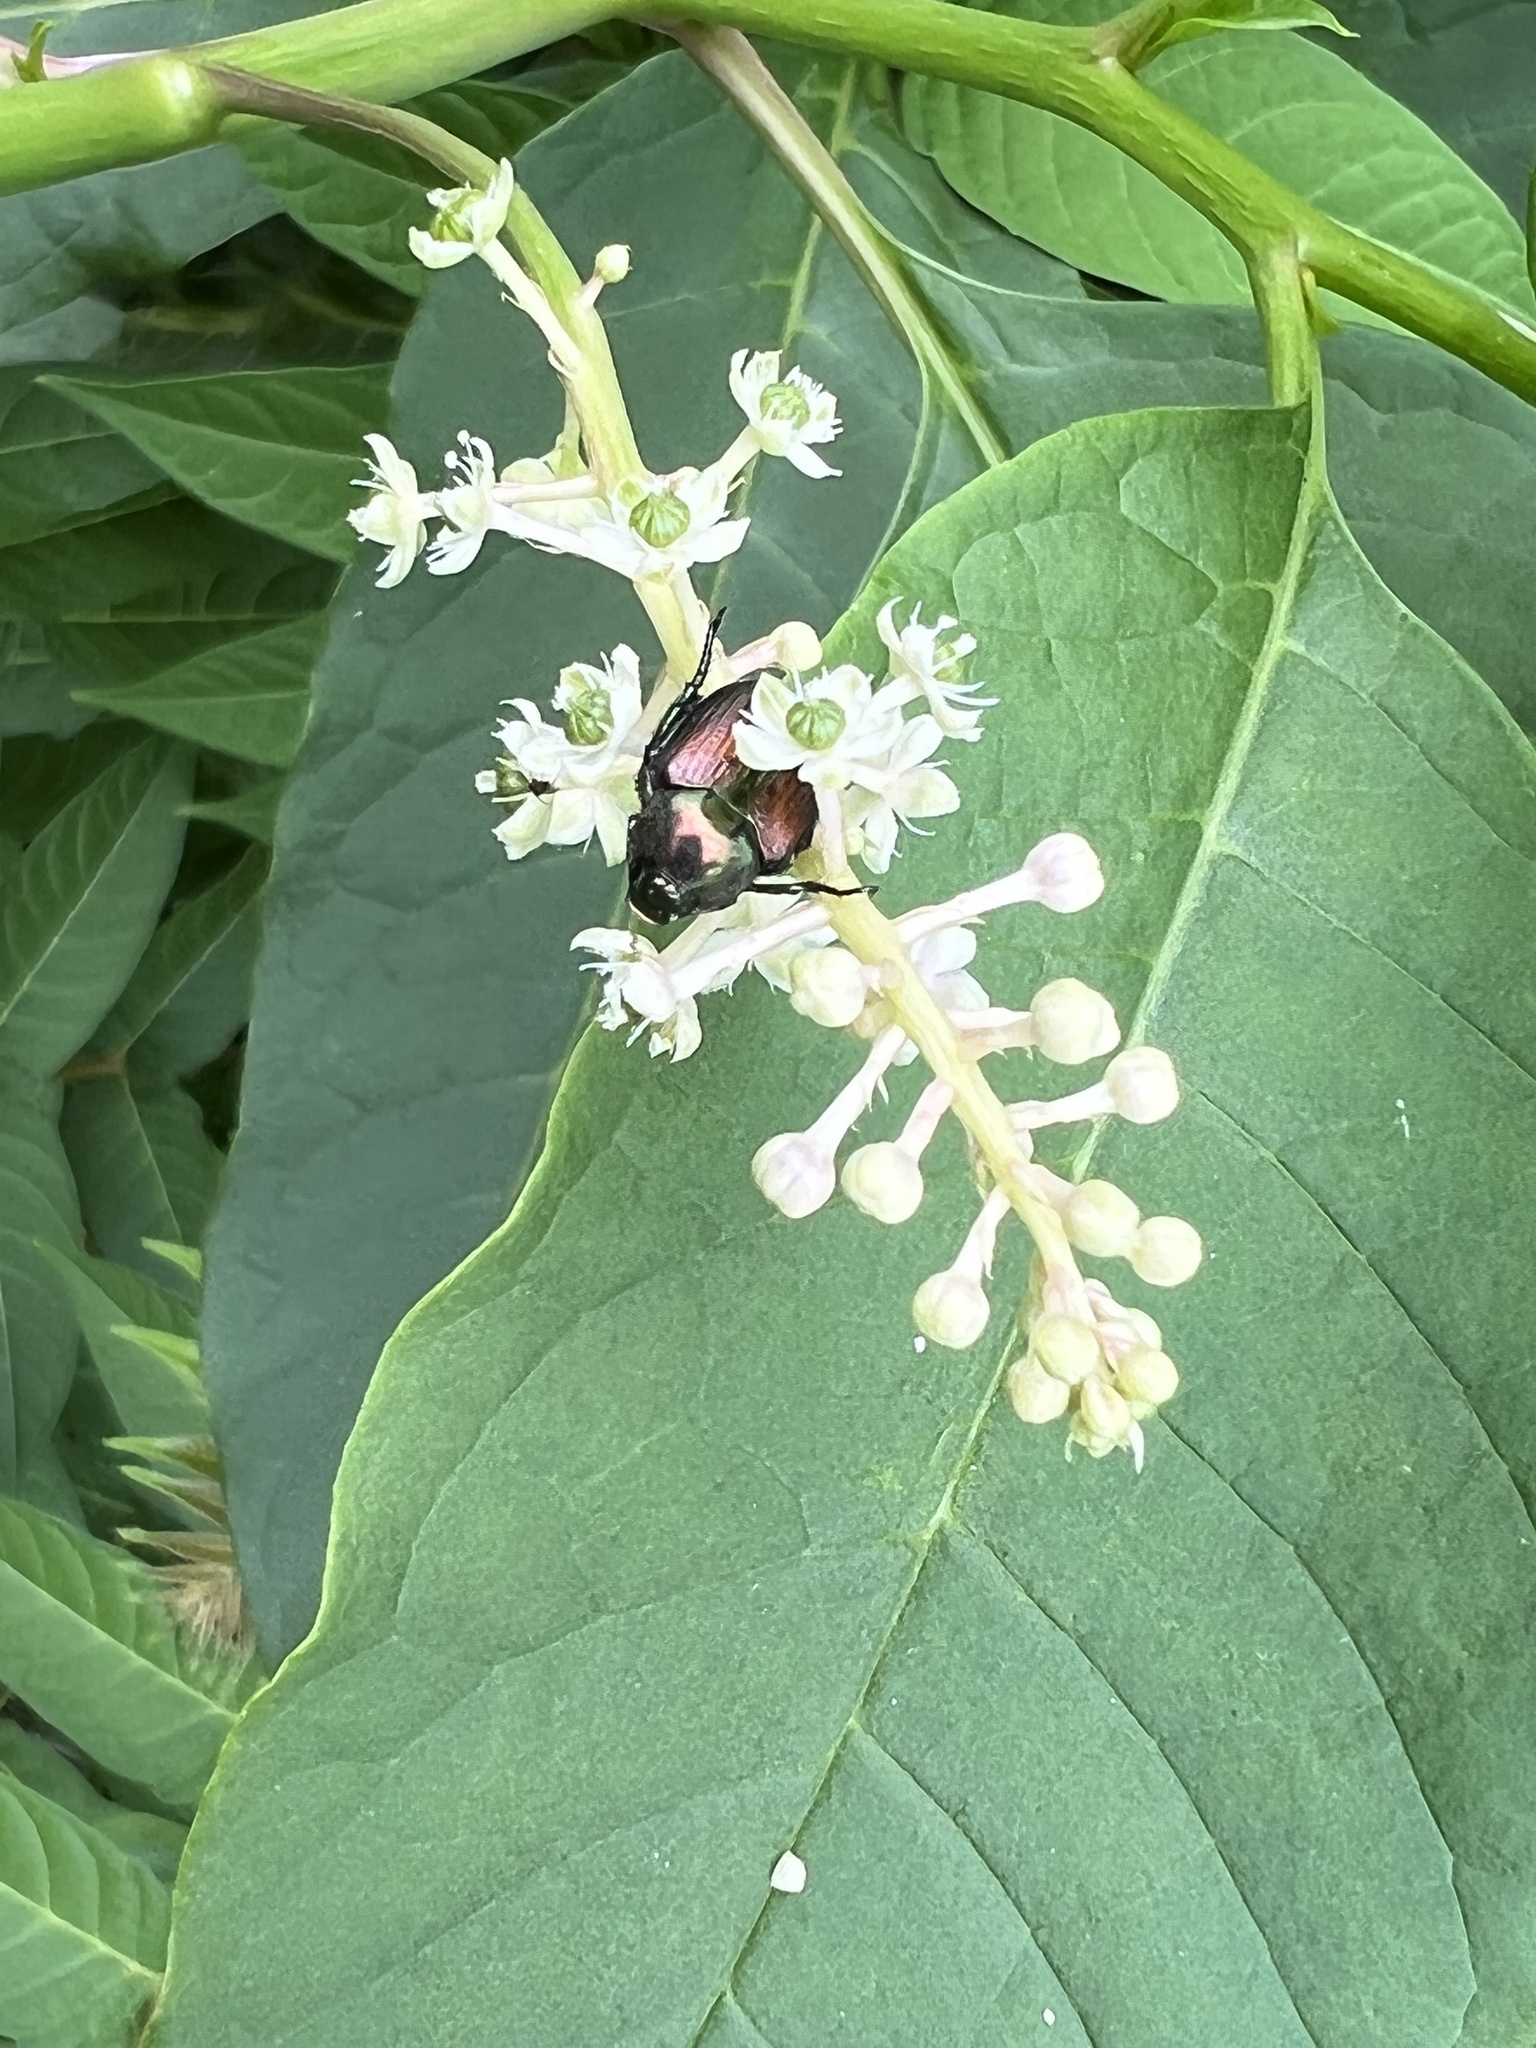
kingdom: Animalia
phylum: Arthropoda
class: Insecta
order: Coleoptera
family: Scarabaeidae
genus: Popillia
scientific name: Popillia japonica
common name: Japanese beetle
